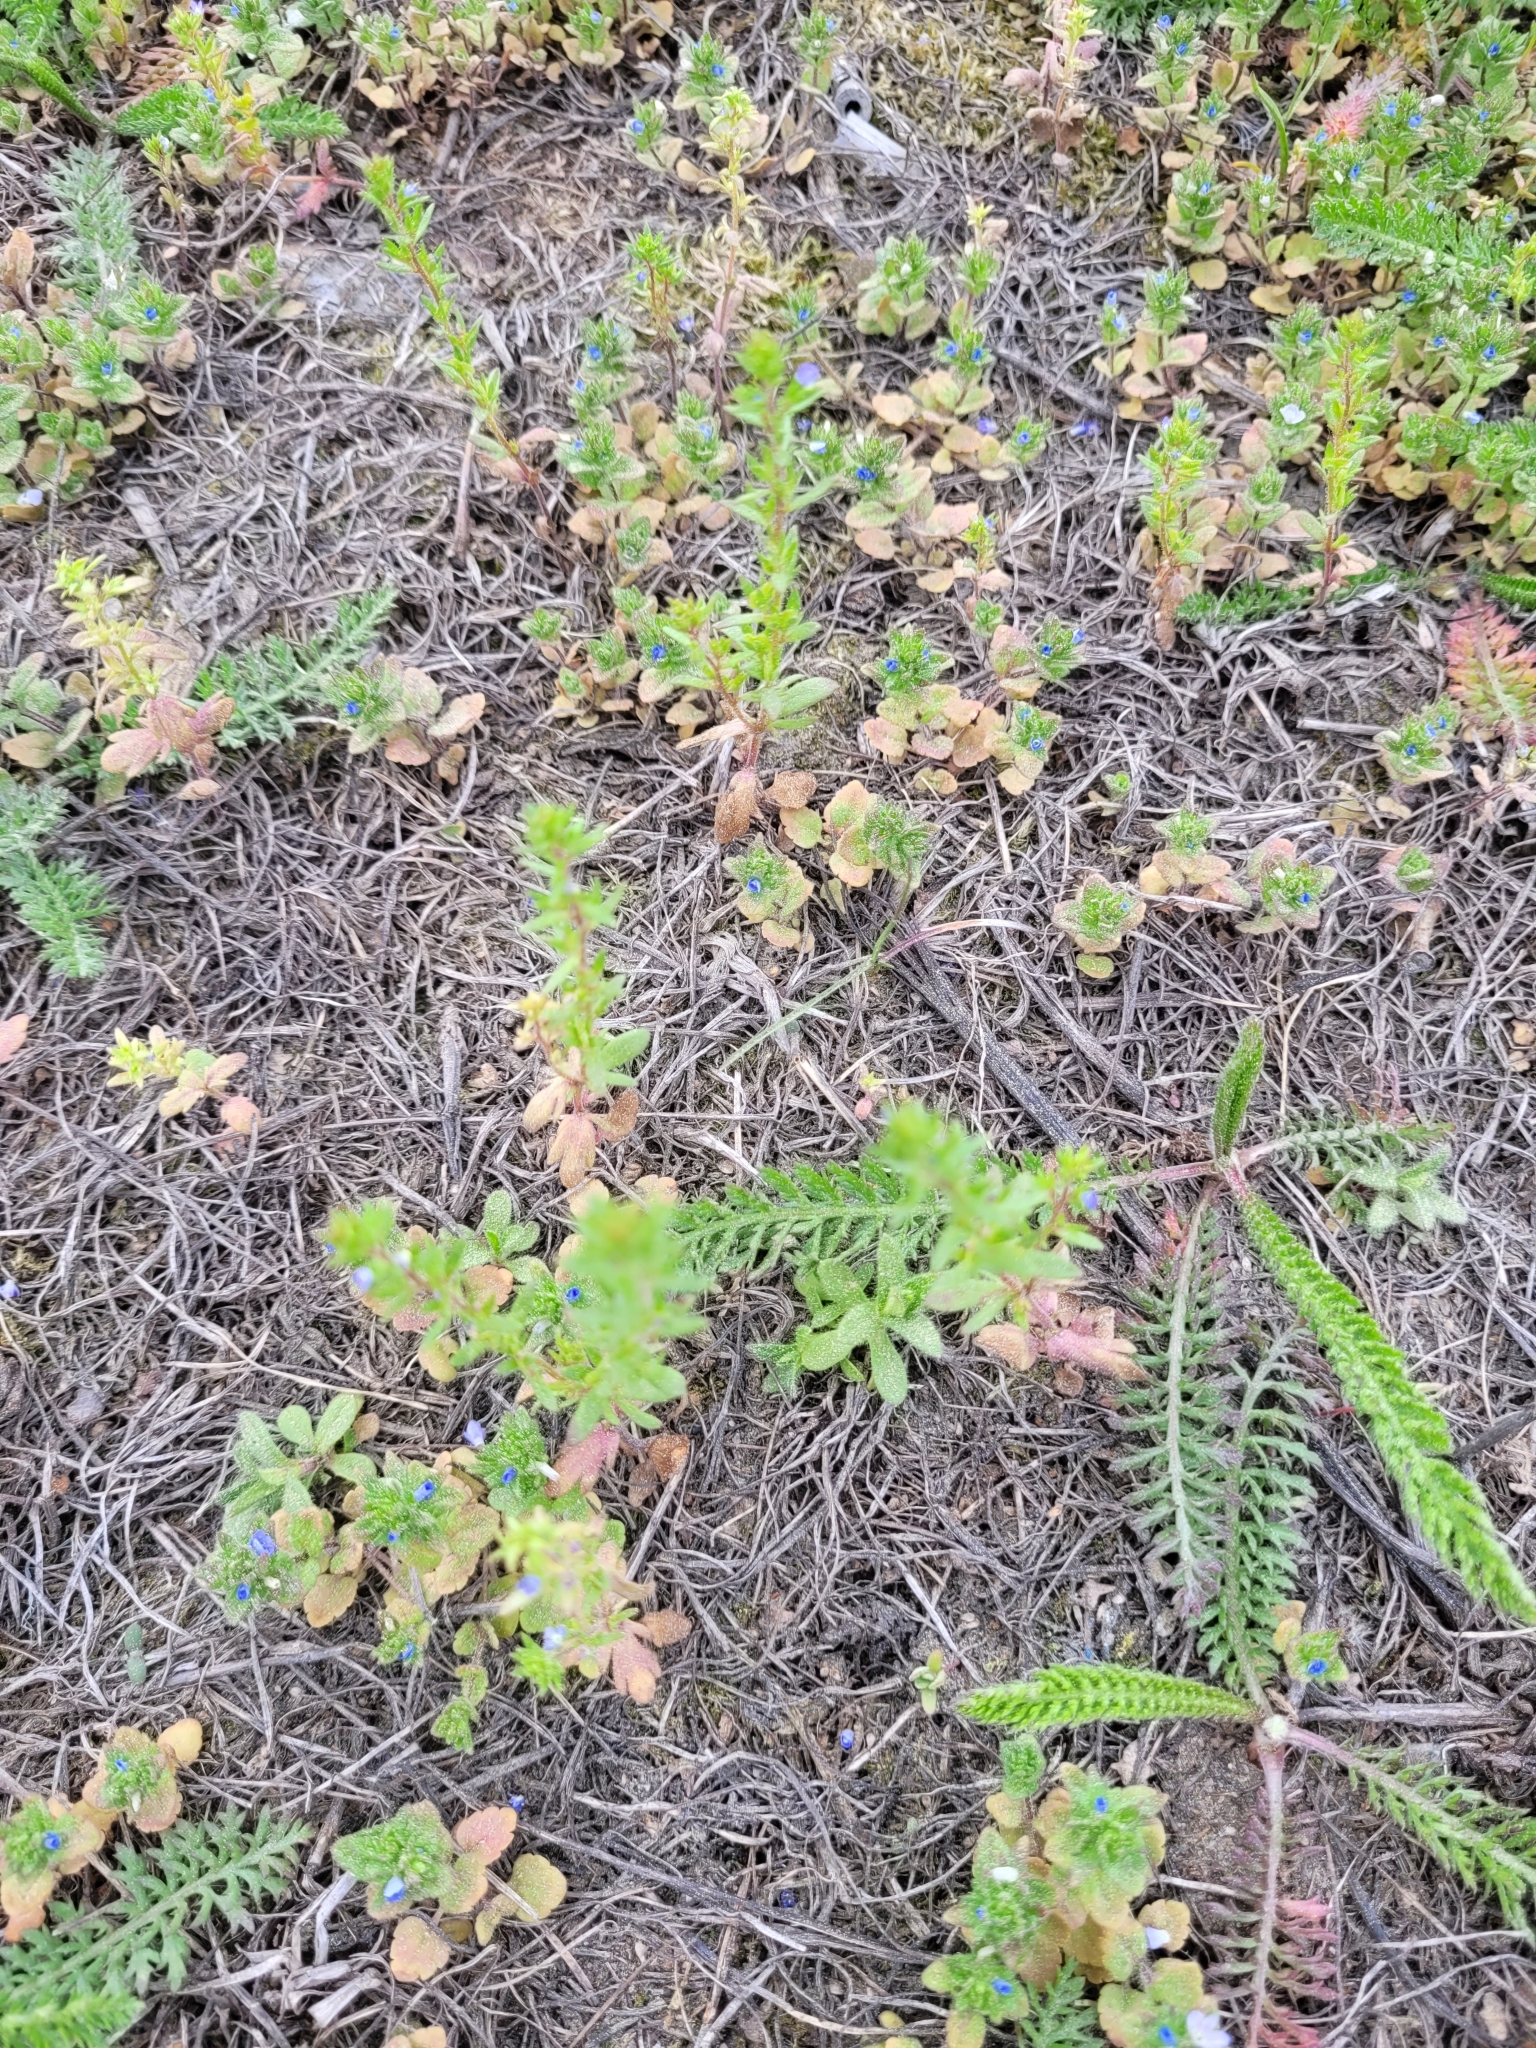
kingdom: Plantae
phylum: Tracheophyta
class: Magnoliopsida
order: Lamiales
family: Plantaginaceae
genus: Veronica
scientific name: Veronica verna
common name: Spring speedwell
